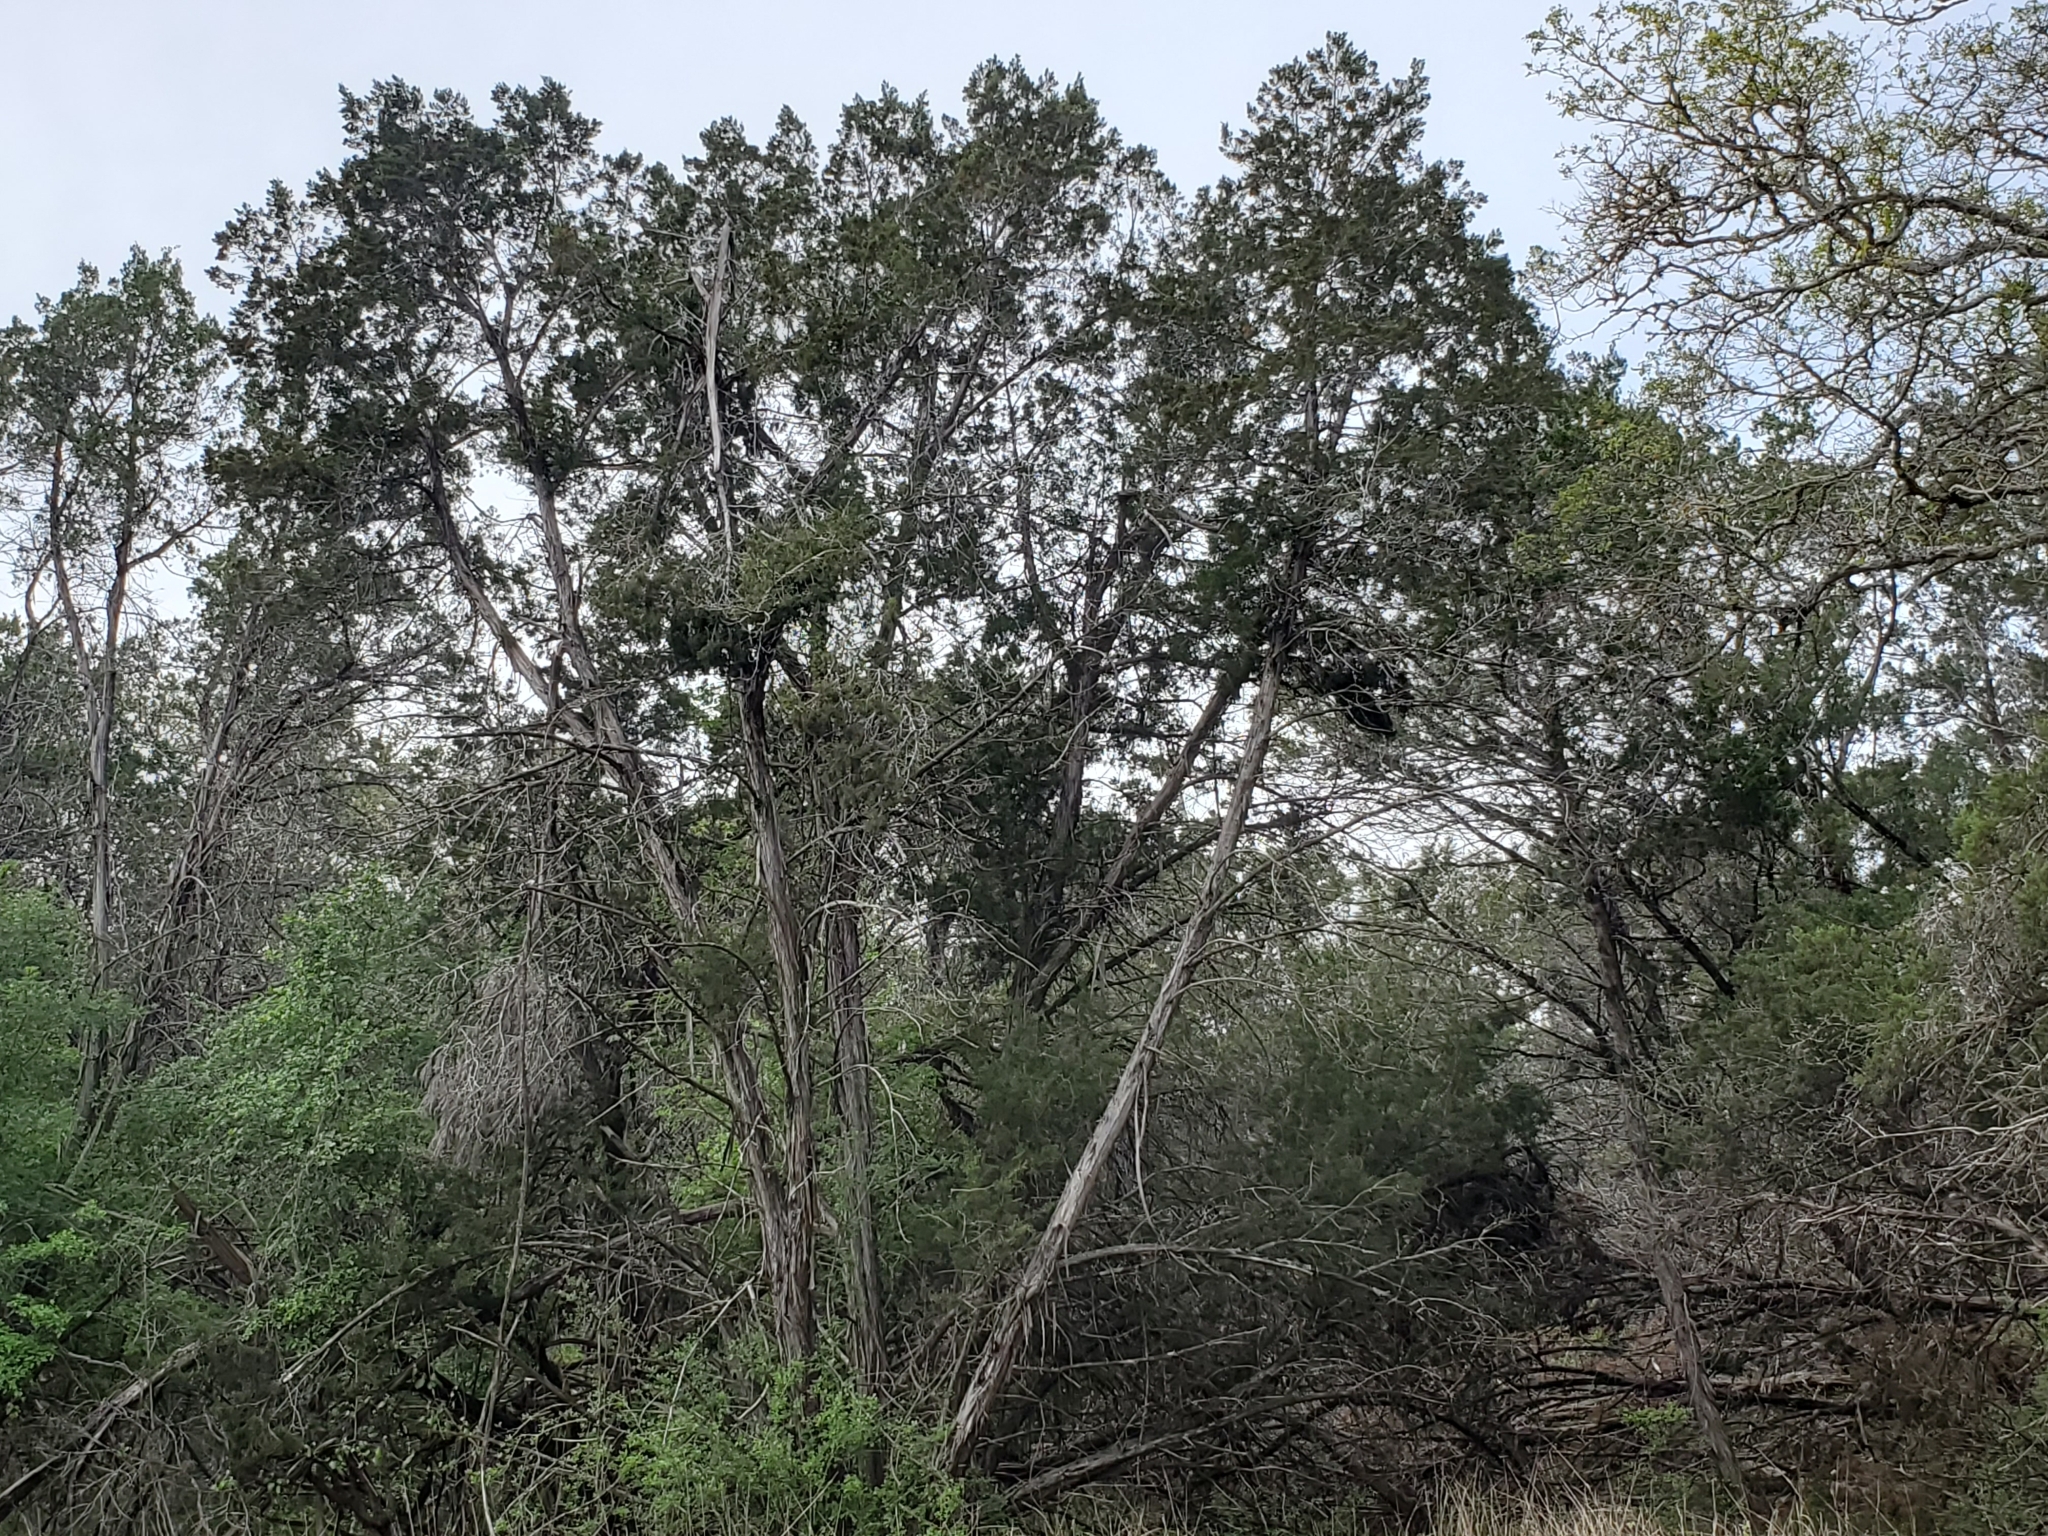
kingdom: Plantae
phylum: Tracheophyta
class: Pinopsida
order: Pinales
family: Cupressaceae
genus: Juniperus
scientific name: Juniperus ashei
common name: Mexican juniper
